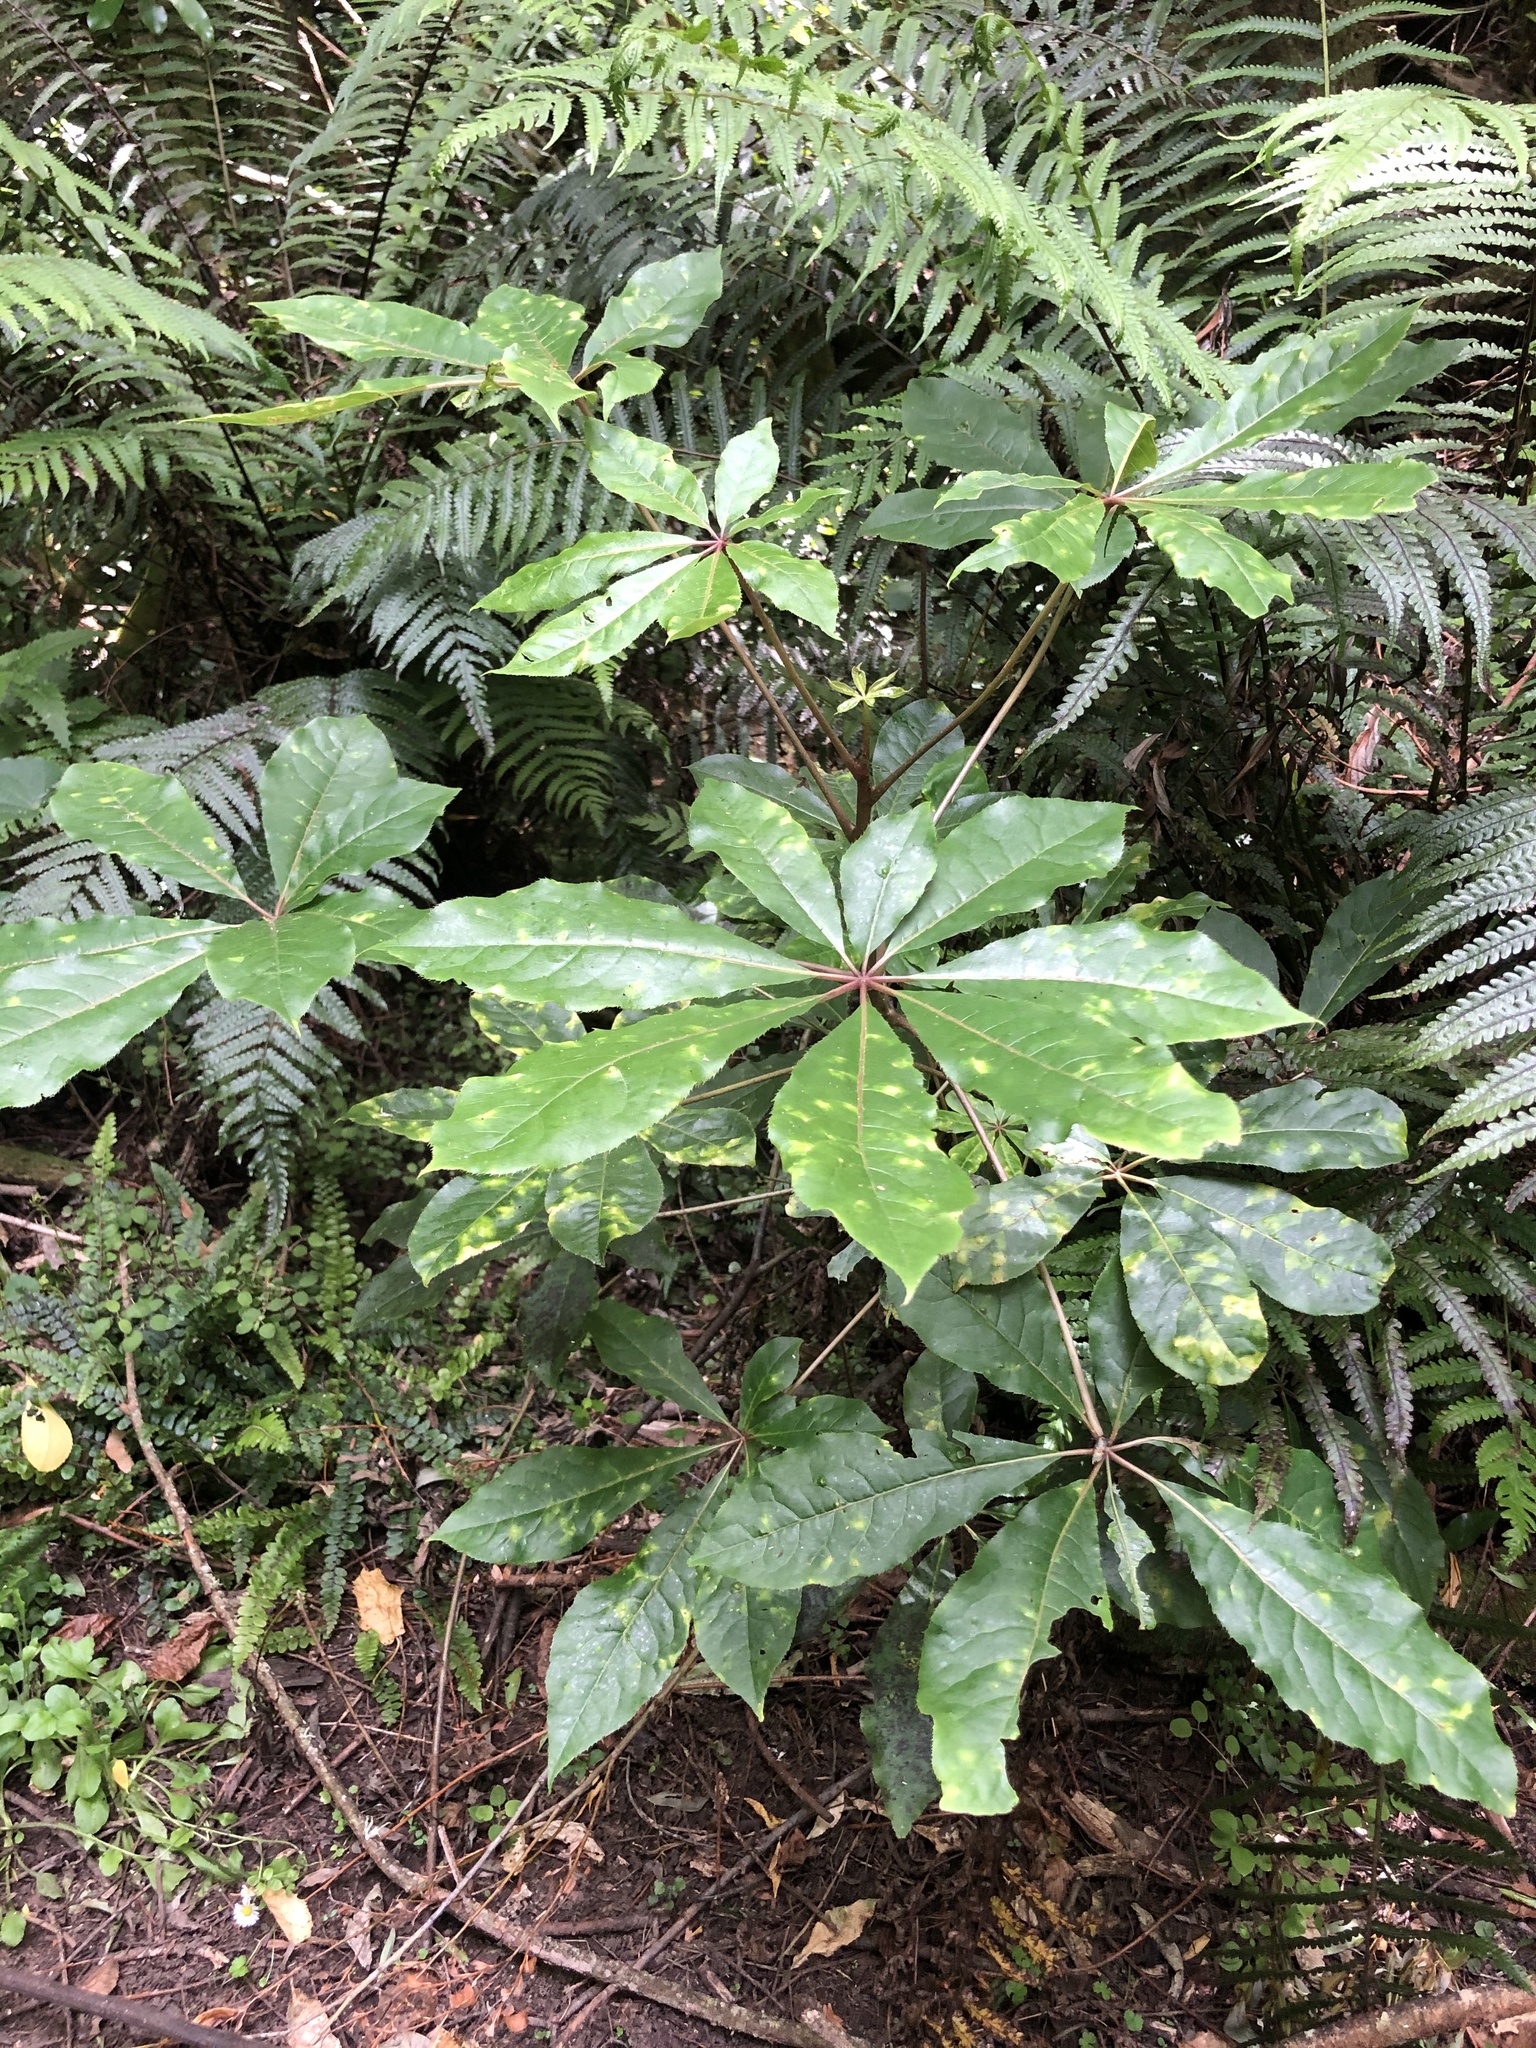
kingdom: Plantae
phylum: Tracheophyta
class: Magnoliopsida
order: Apiales
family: Araliaceae
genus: Schefflera
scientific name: Schefflera digitata
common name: Pate
